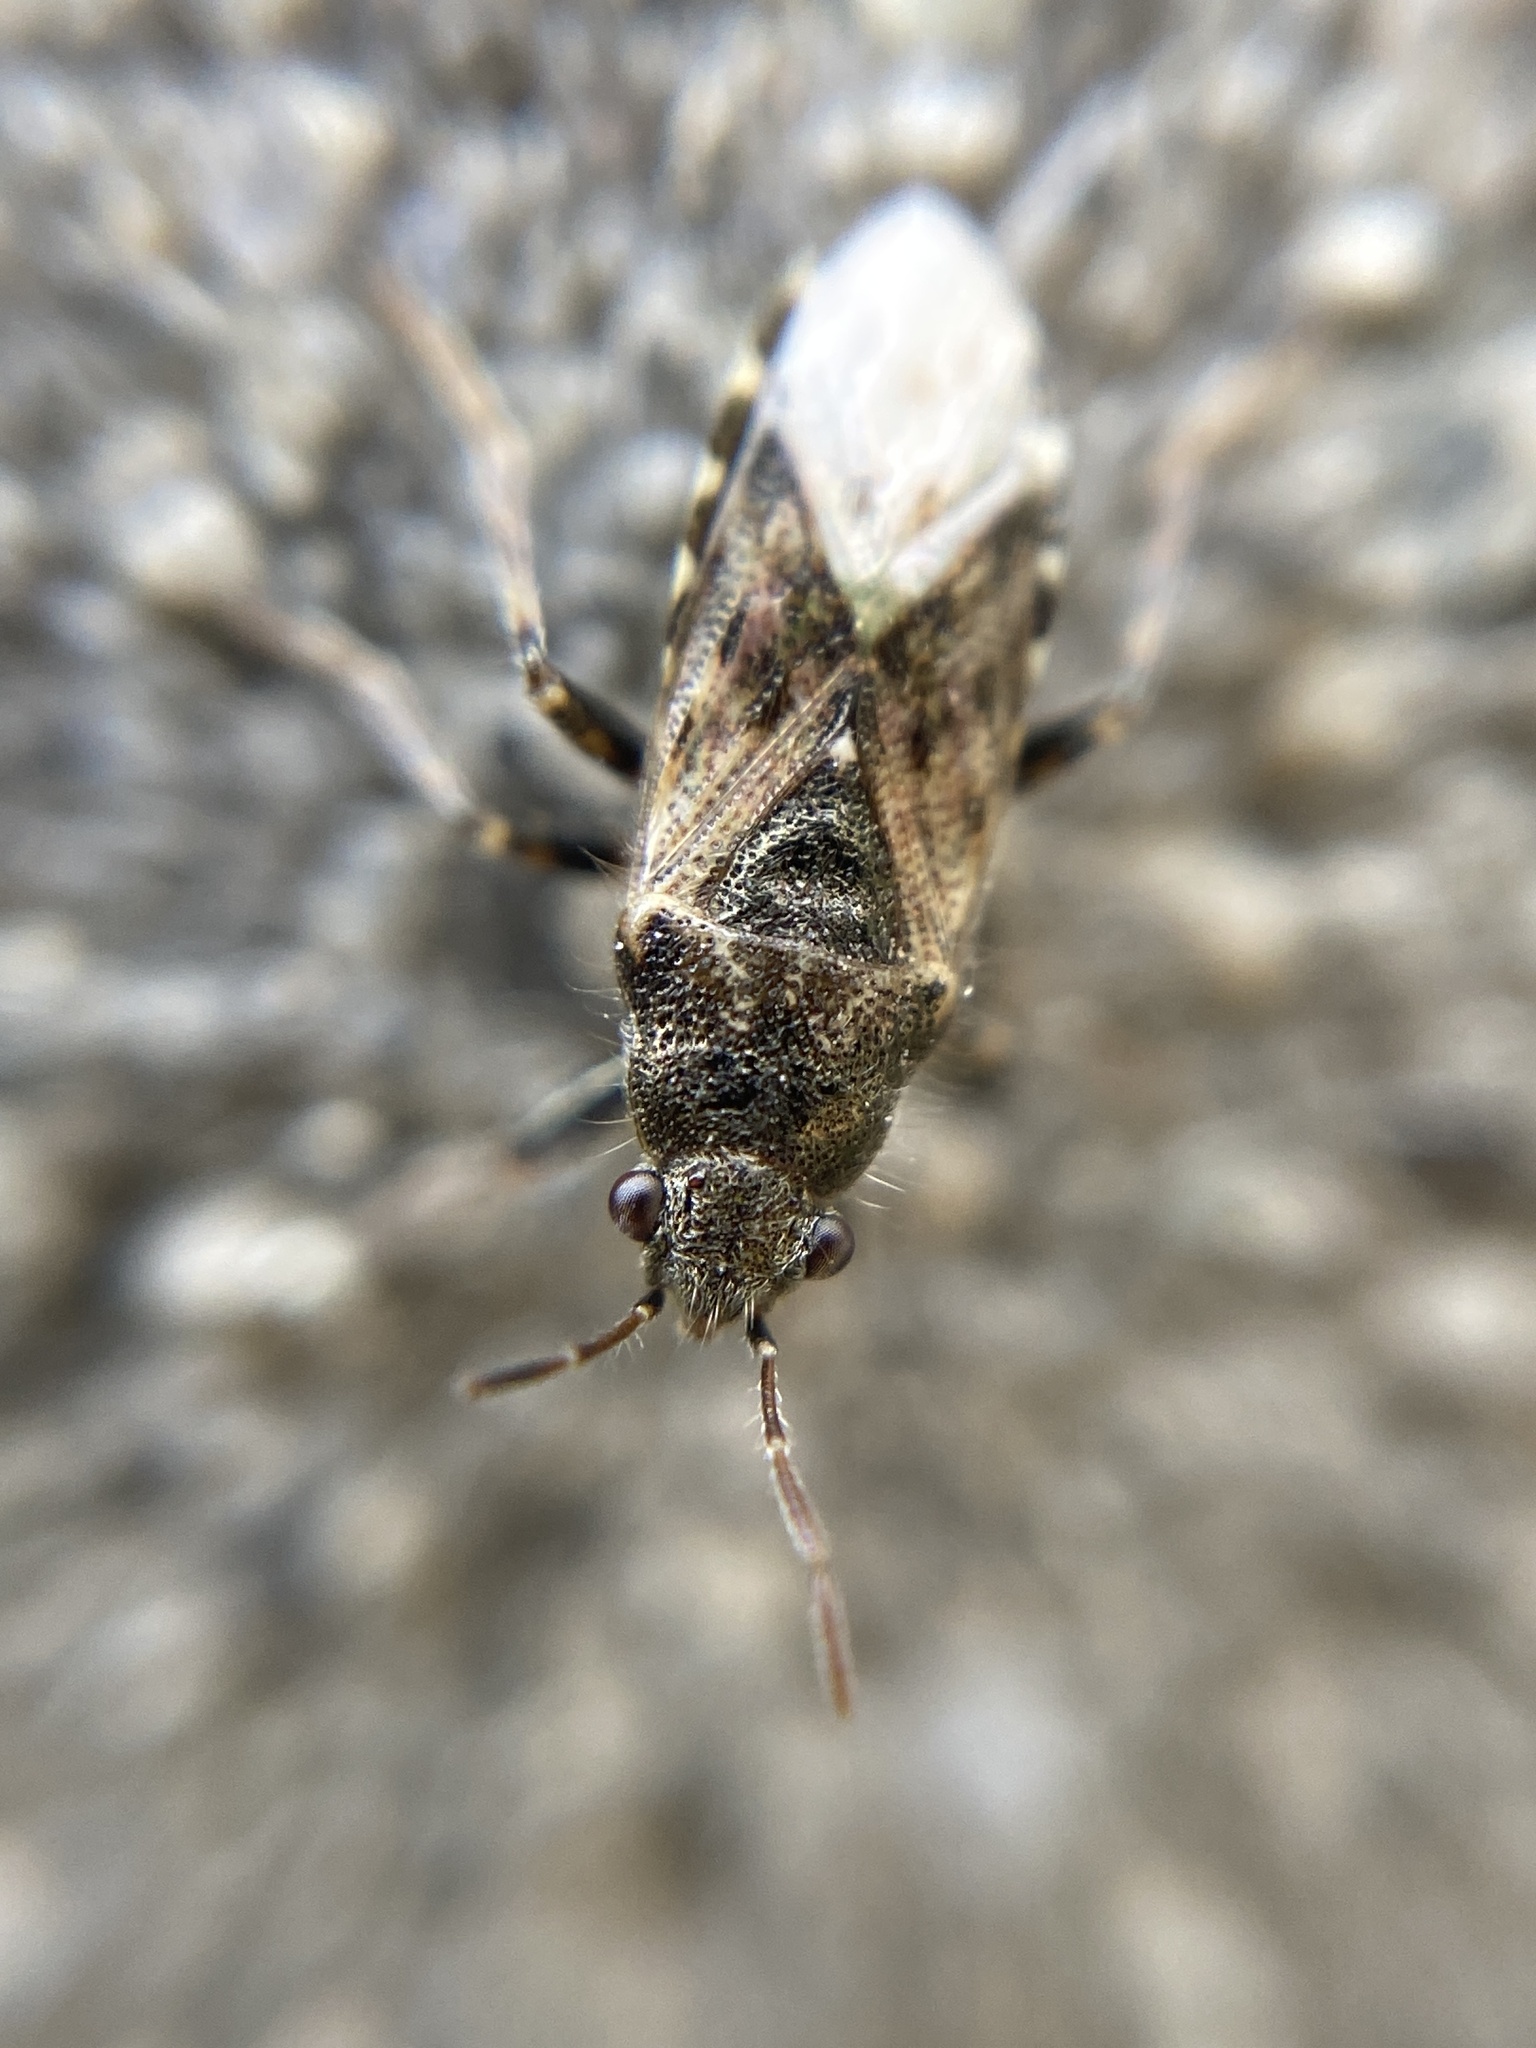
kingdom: Animalia
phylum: Arthropoda
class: Insecta
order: Hemiptera
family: Heterogastridae
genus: Heterogaster
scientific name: Heterogaster urticae
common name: Seed bug
